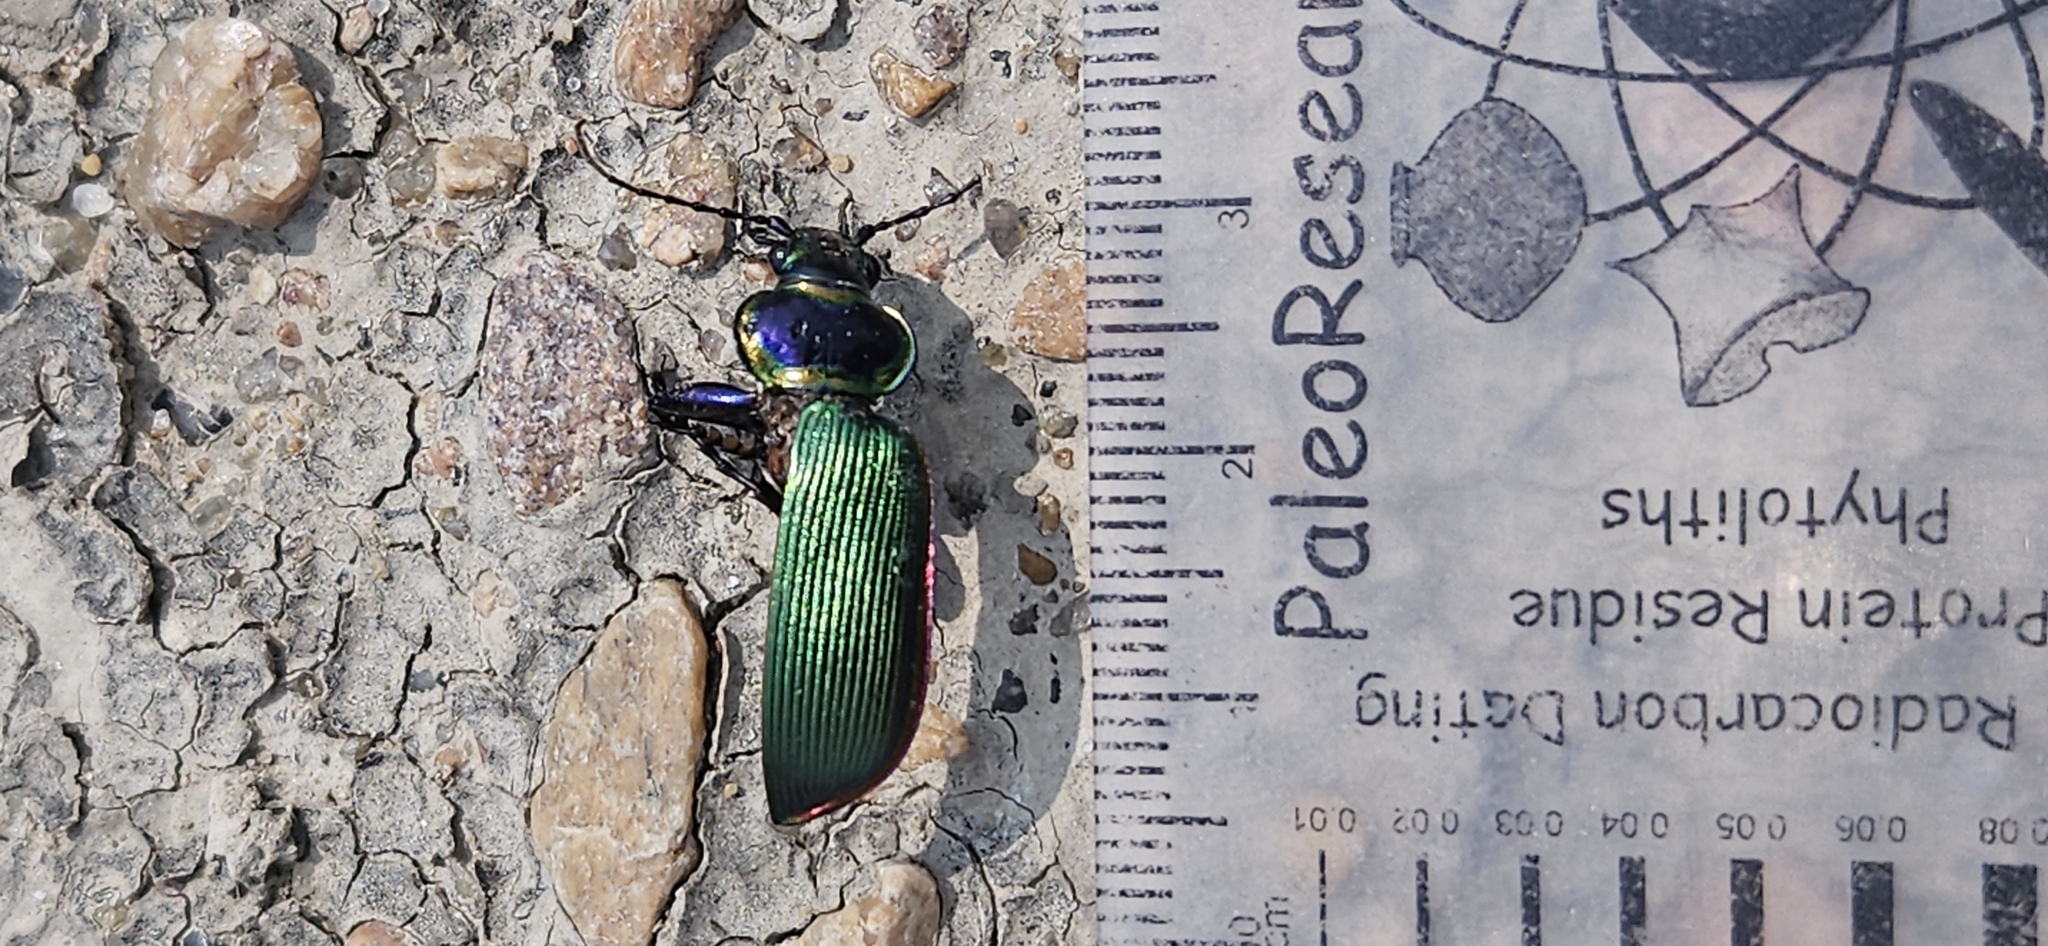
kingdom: Animalia
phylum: Arthropoda
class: Insecta
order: Coleoptera
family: Carabidae
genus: Calosoma
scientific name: Calosoma scrutator
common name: Fiery searcher beetle
